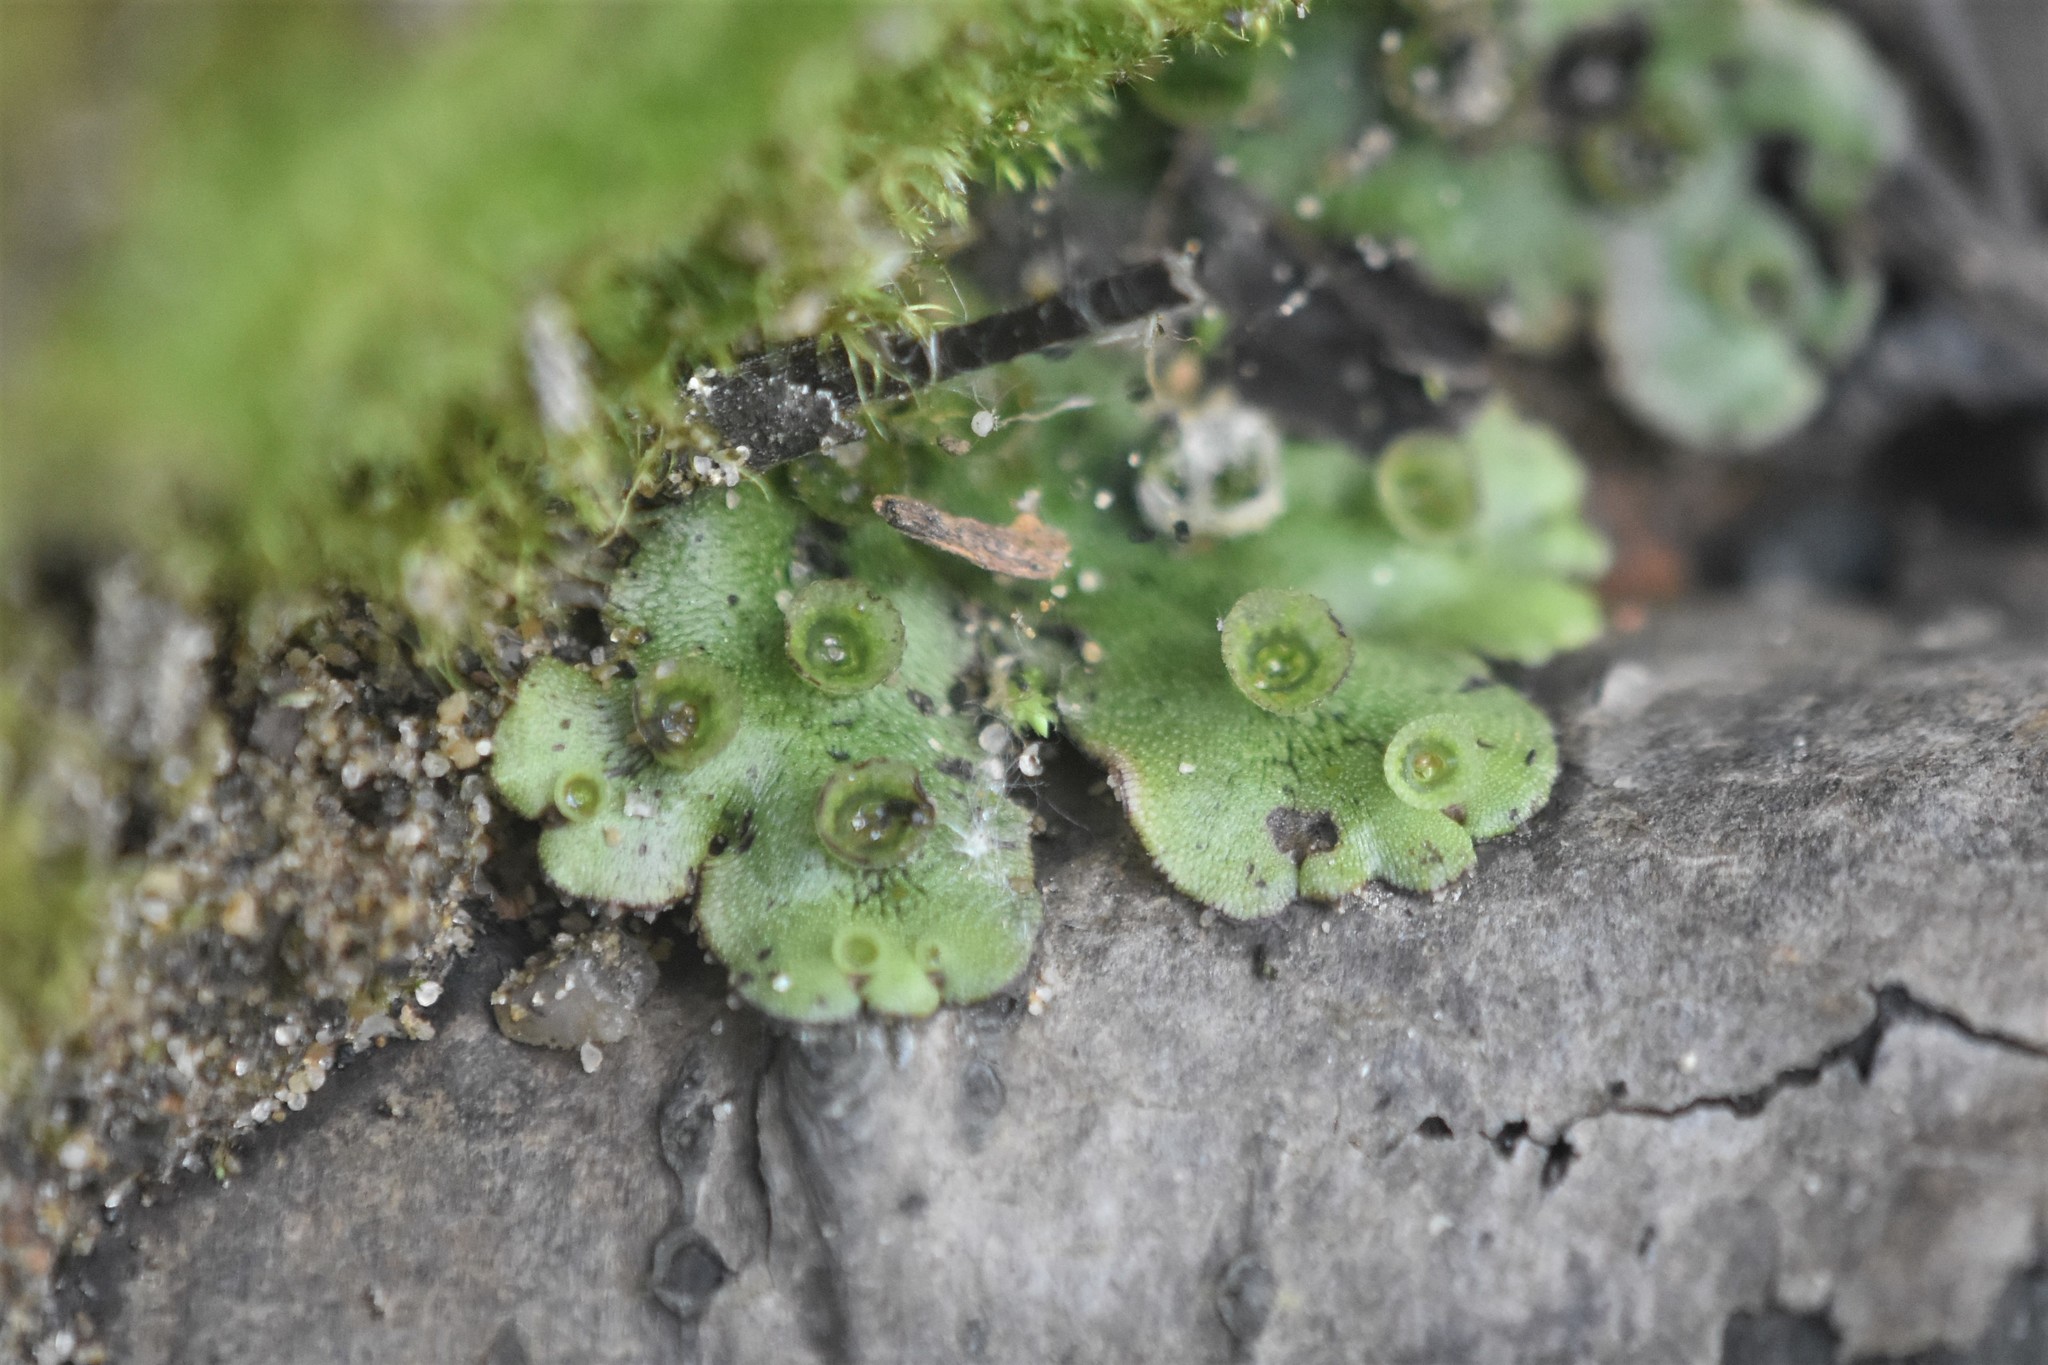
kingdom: Plantae
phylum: Marchantiophyta
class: Marchantiopsida
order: Marchantiales
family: Marchantiaceae
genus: Marchantia
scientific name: Marchantia polymorpha
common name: Common liverwort
